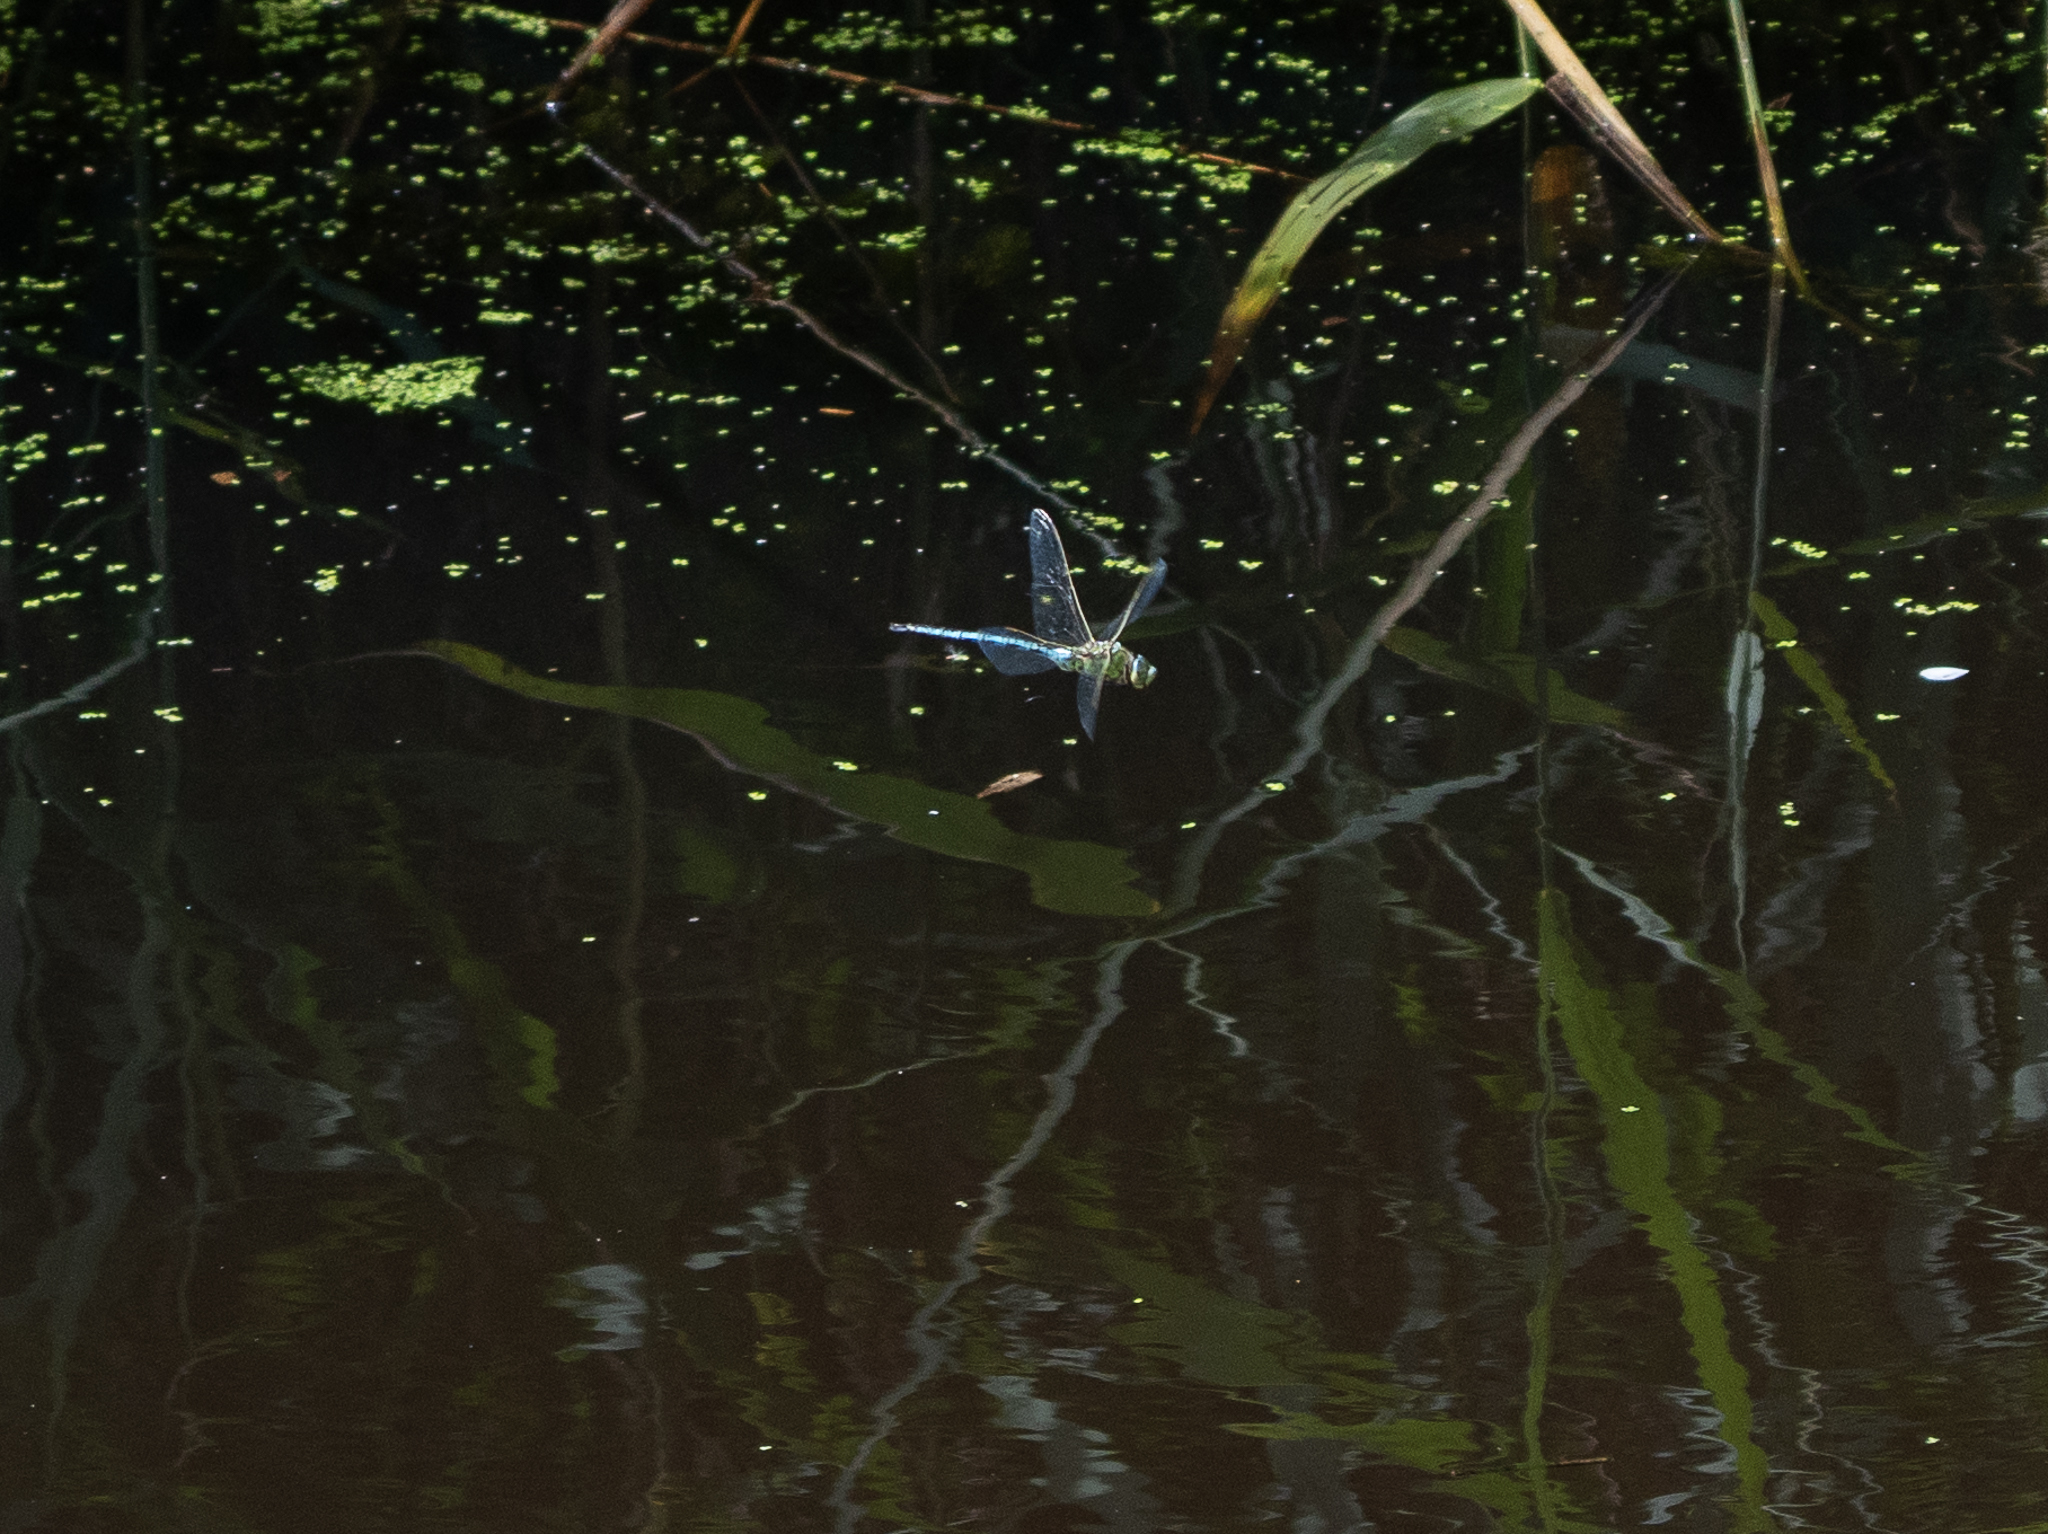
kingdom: Animalia
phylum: Arthropoda
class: Insecta
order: Odonata
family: Aeshnidae
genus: Anax
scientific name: Anax imperator
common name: Emperor dragonfly
